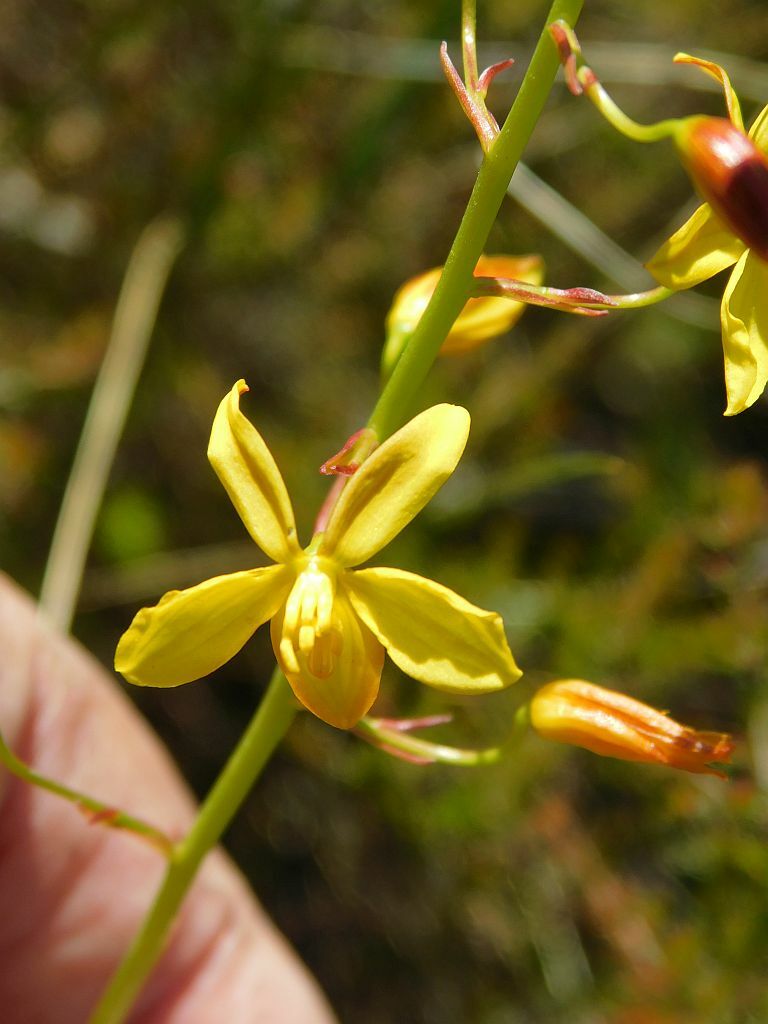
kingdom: Plantae
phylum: Tracheophyta
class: Liliopsida
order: Asparagales
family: Tecophilaeaceae
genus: Cyanella
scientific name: Cyanella lutea
